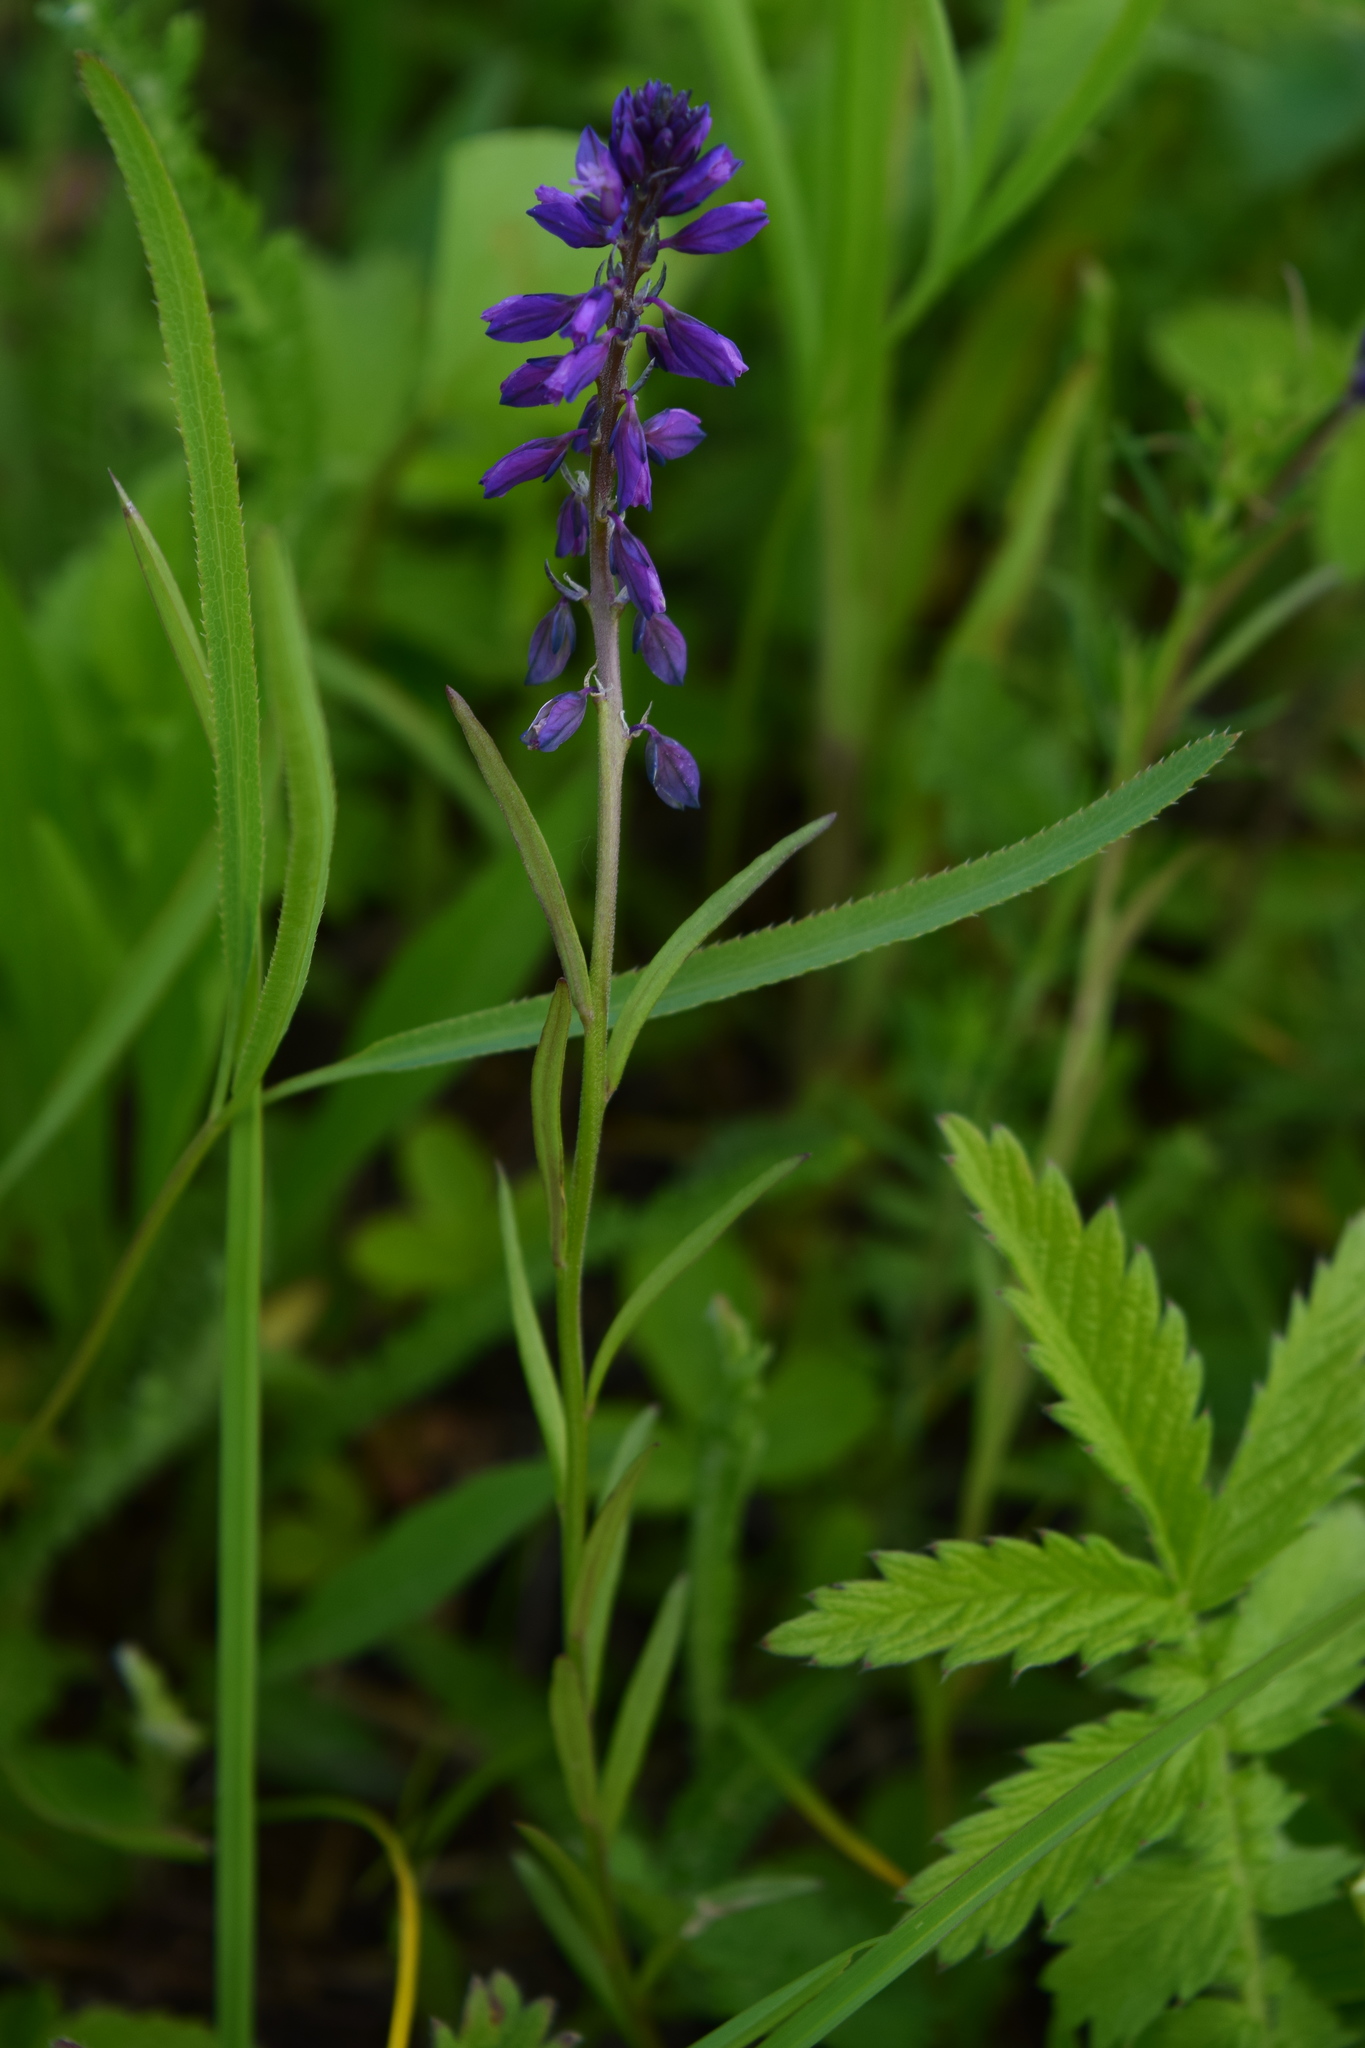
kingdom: Plantae
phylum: Tracheophyta
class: Magnoliopsida
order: Fabales
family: Polygalaceae
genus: Polygala
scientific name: Polygala comosa
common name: Tufted milkwort
